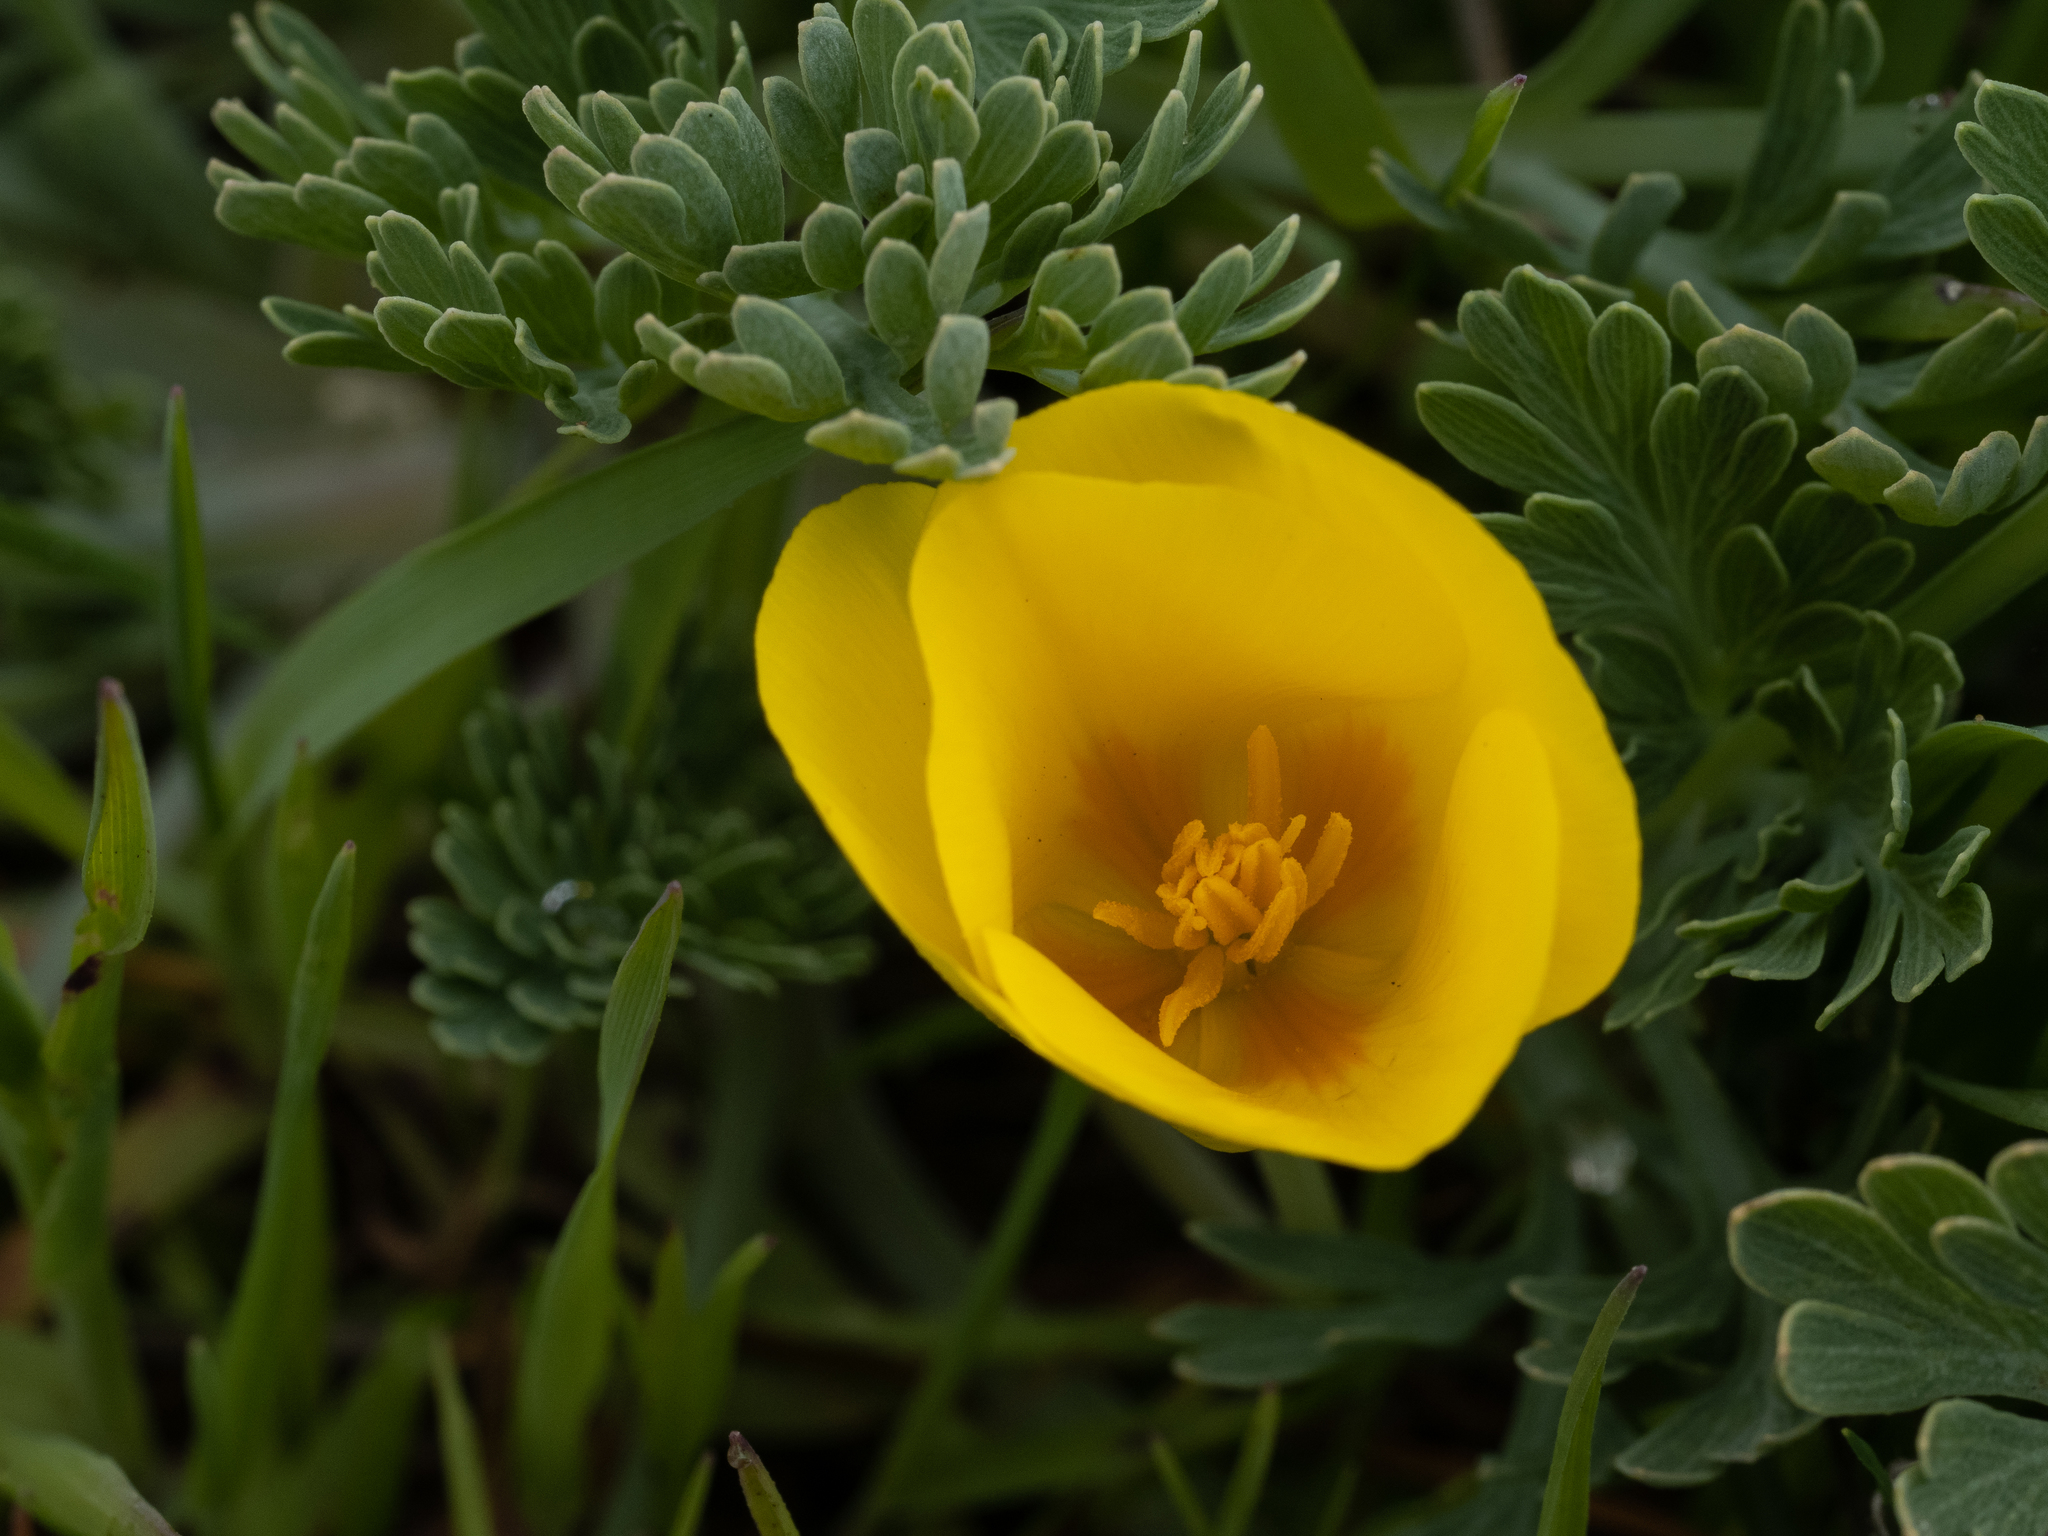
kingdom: Plantae
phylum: Tracheophyta
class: Magnoliopsida
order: Ranunculales
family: Papaveraceae
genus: Eschscholzia
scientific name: Eschscholzia californica
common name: California poppy
